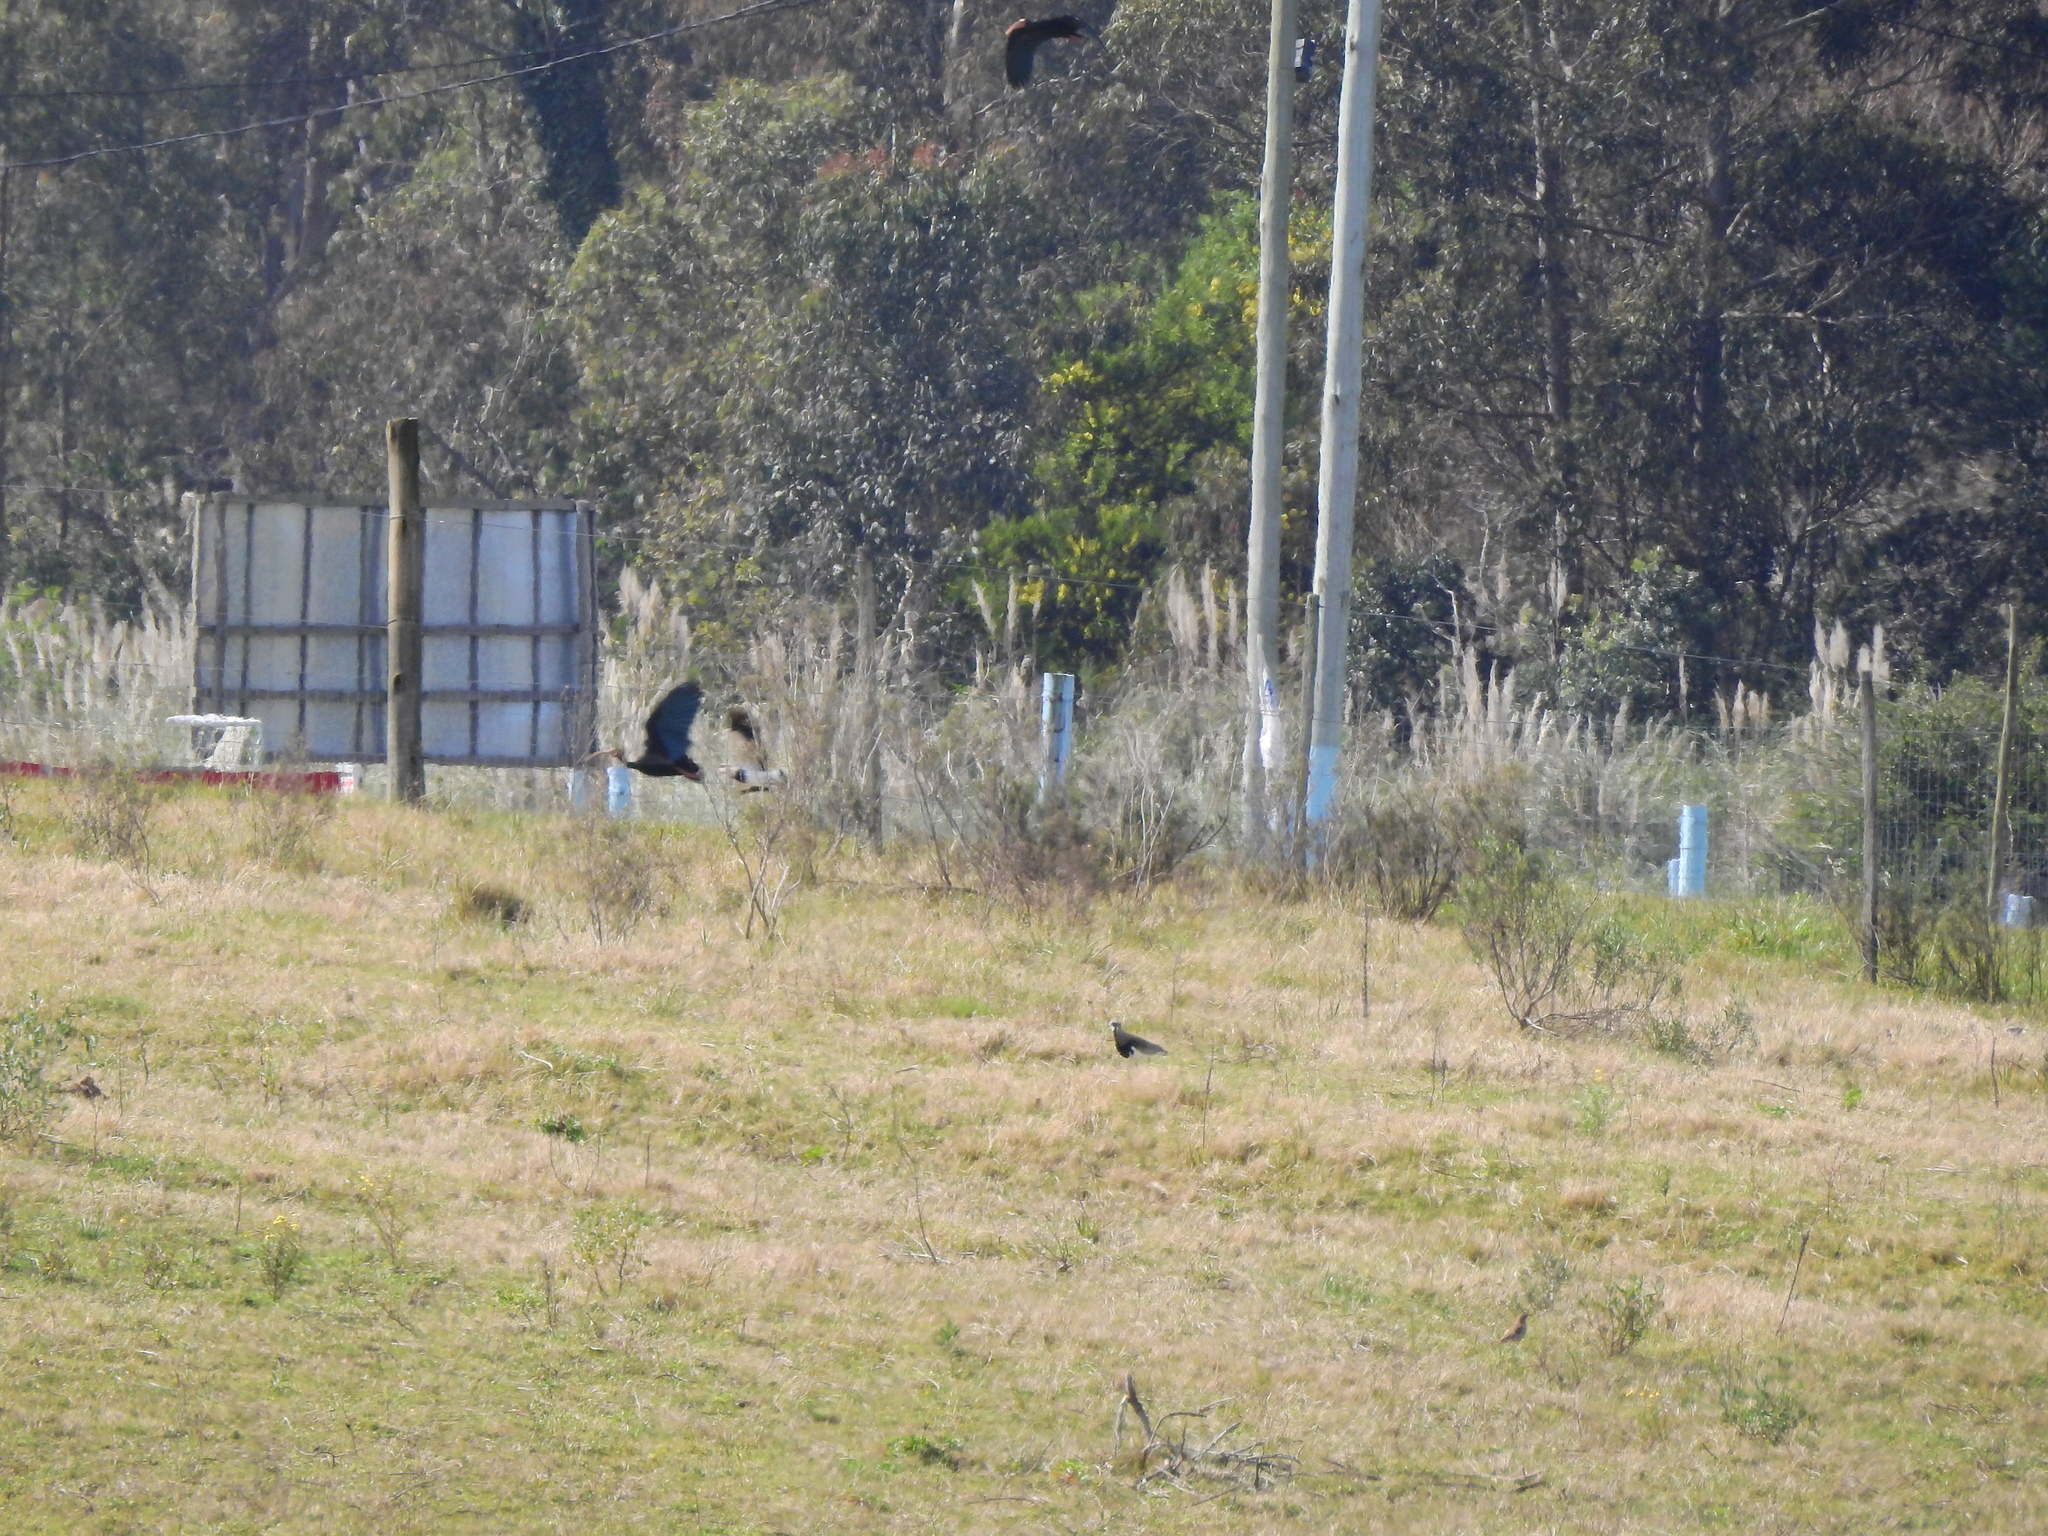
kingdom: Animalia
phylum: Chordata
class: Aves
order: Pelecaniformes
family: Threskiornithidae
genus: Phimosus
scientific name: Phimosus infuscatus
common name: Bare-faced ibis
